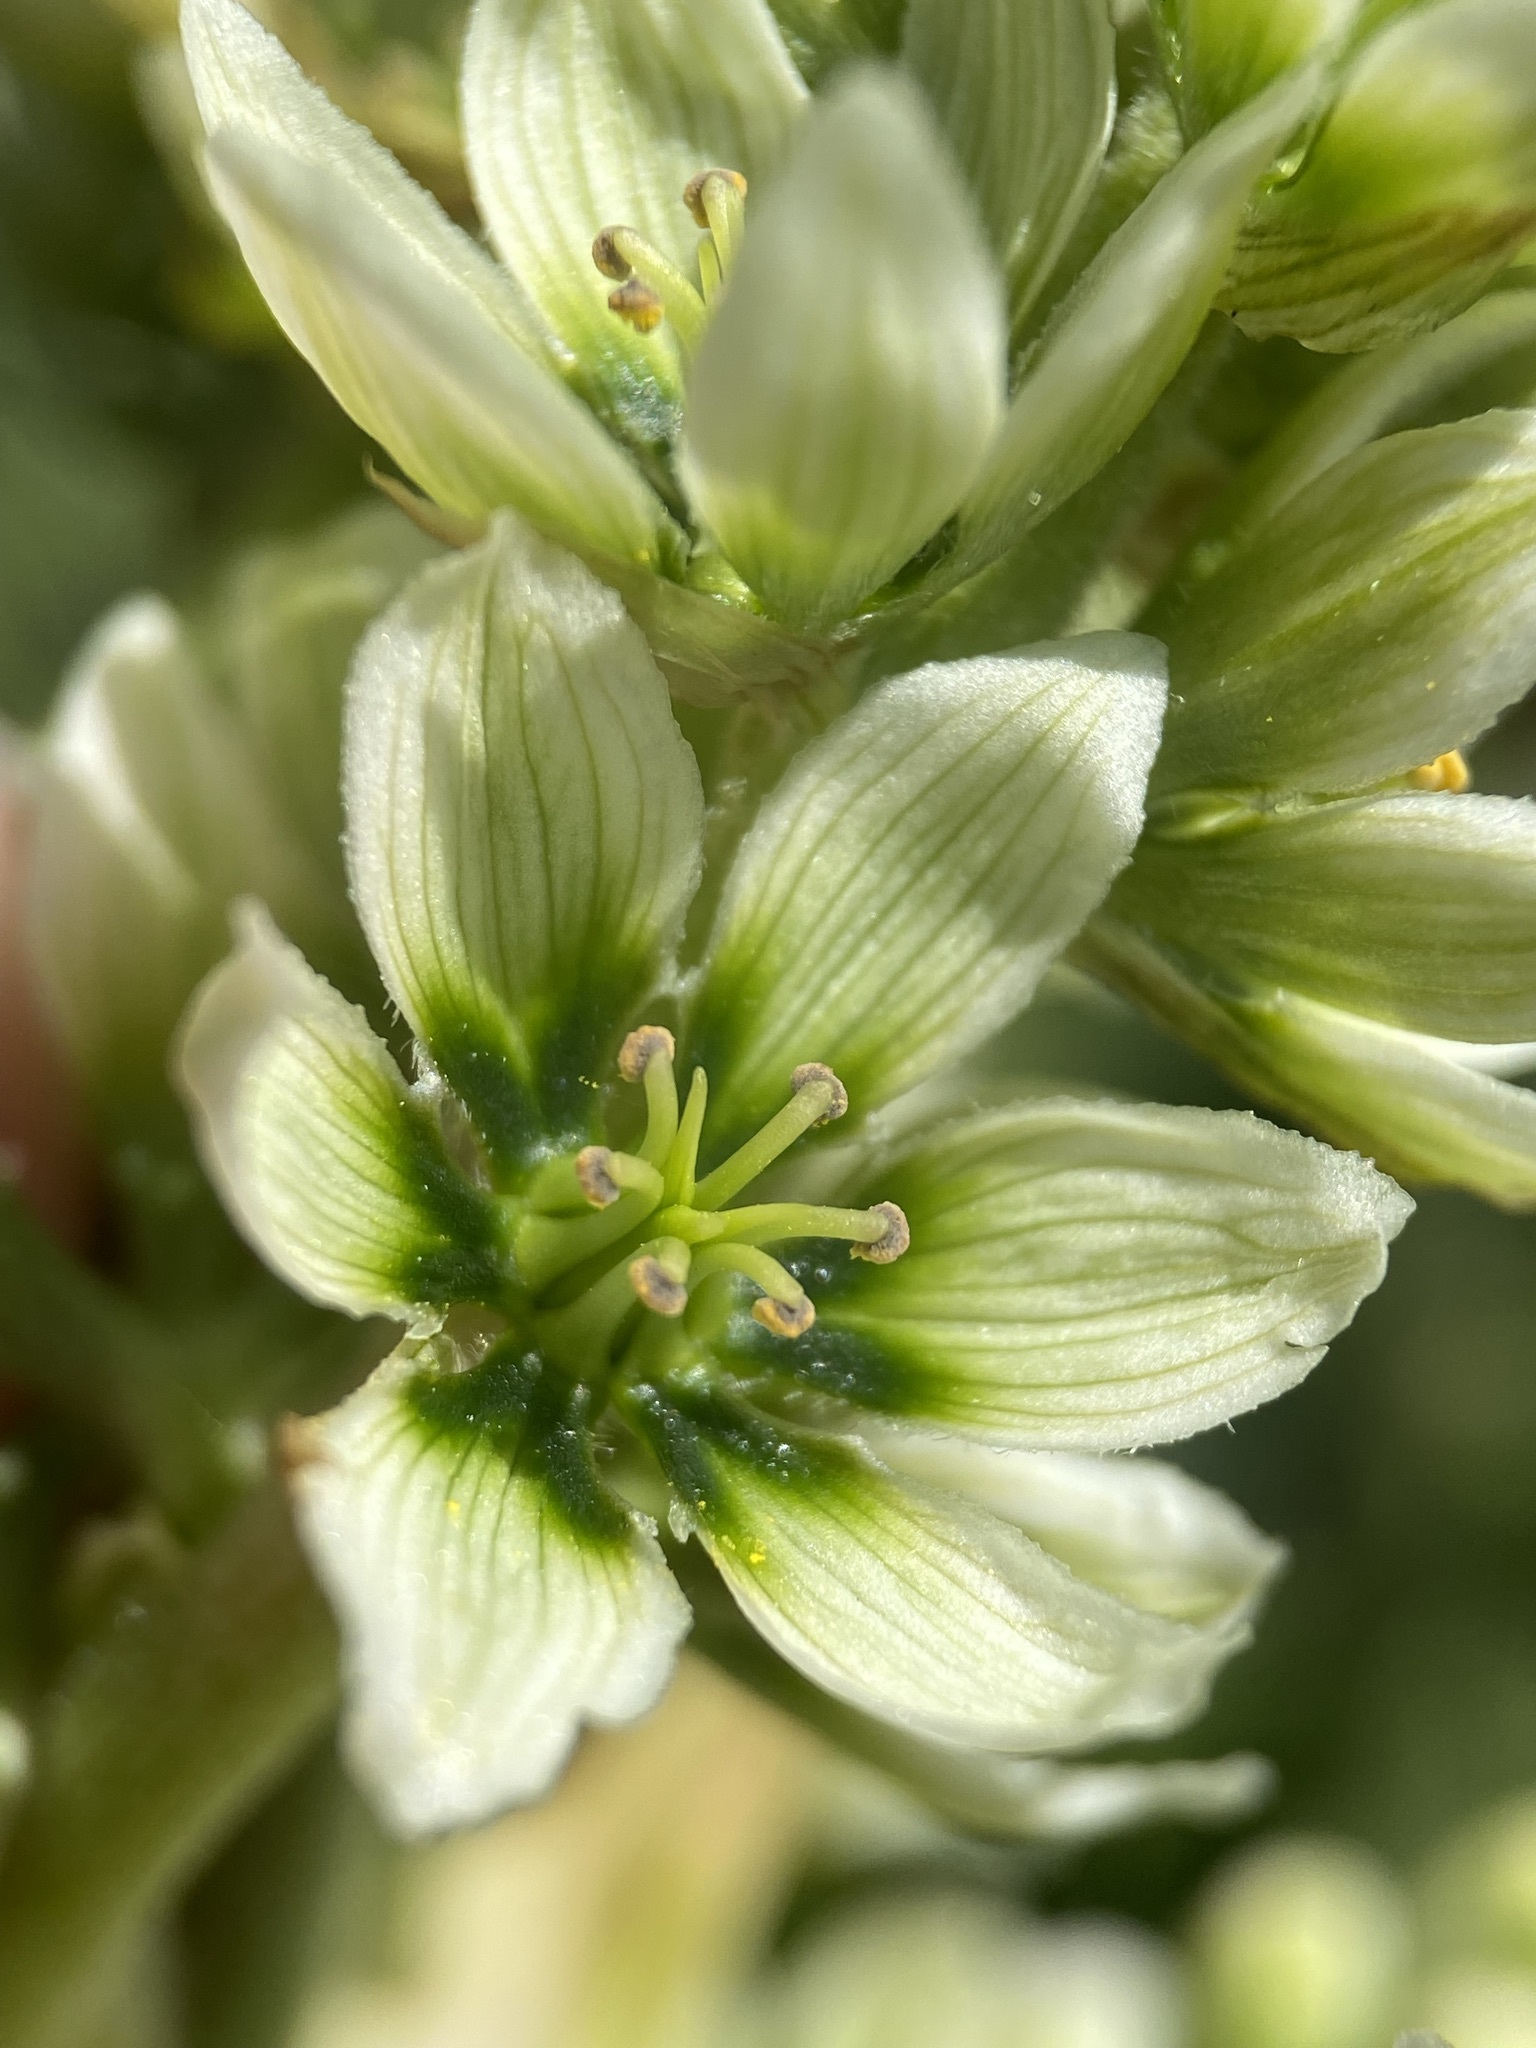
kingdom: Plantae
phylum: Tracheophyta
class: Liliopsida
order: Liliales
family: Melanthiaceae
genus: Veratrum
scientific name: Veratrum californicum
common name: California veratrum
